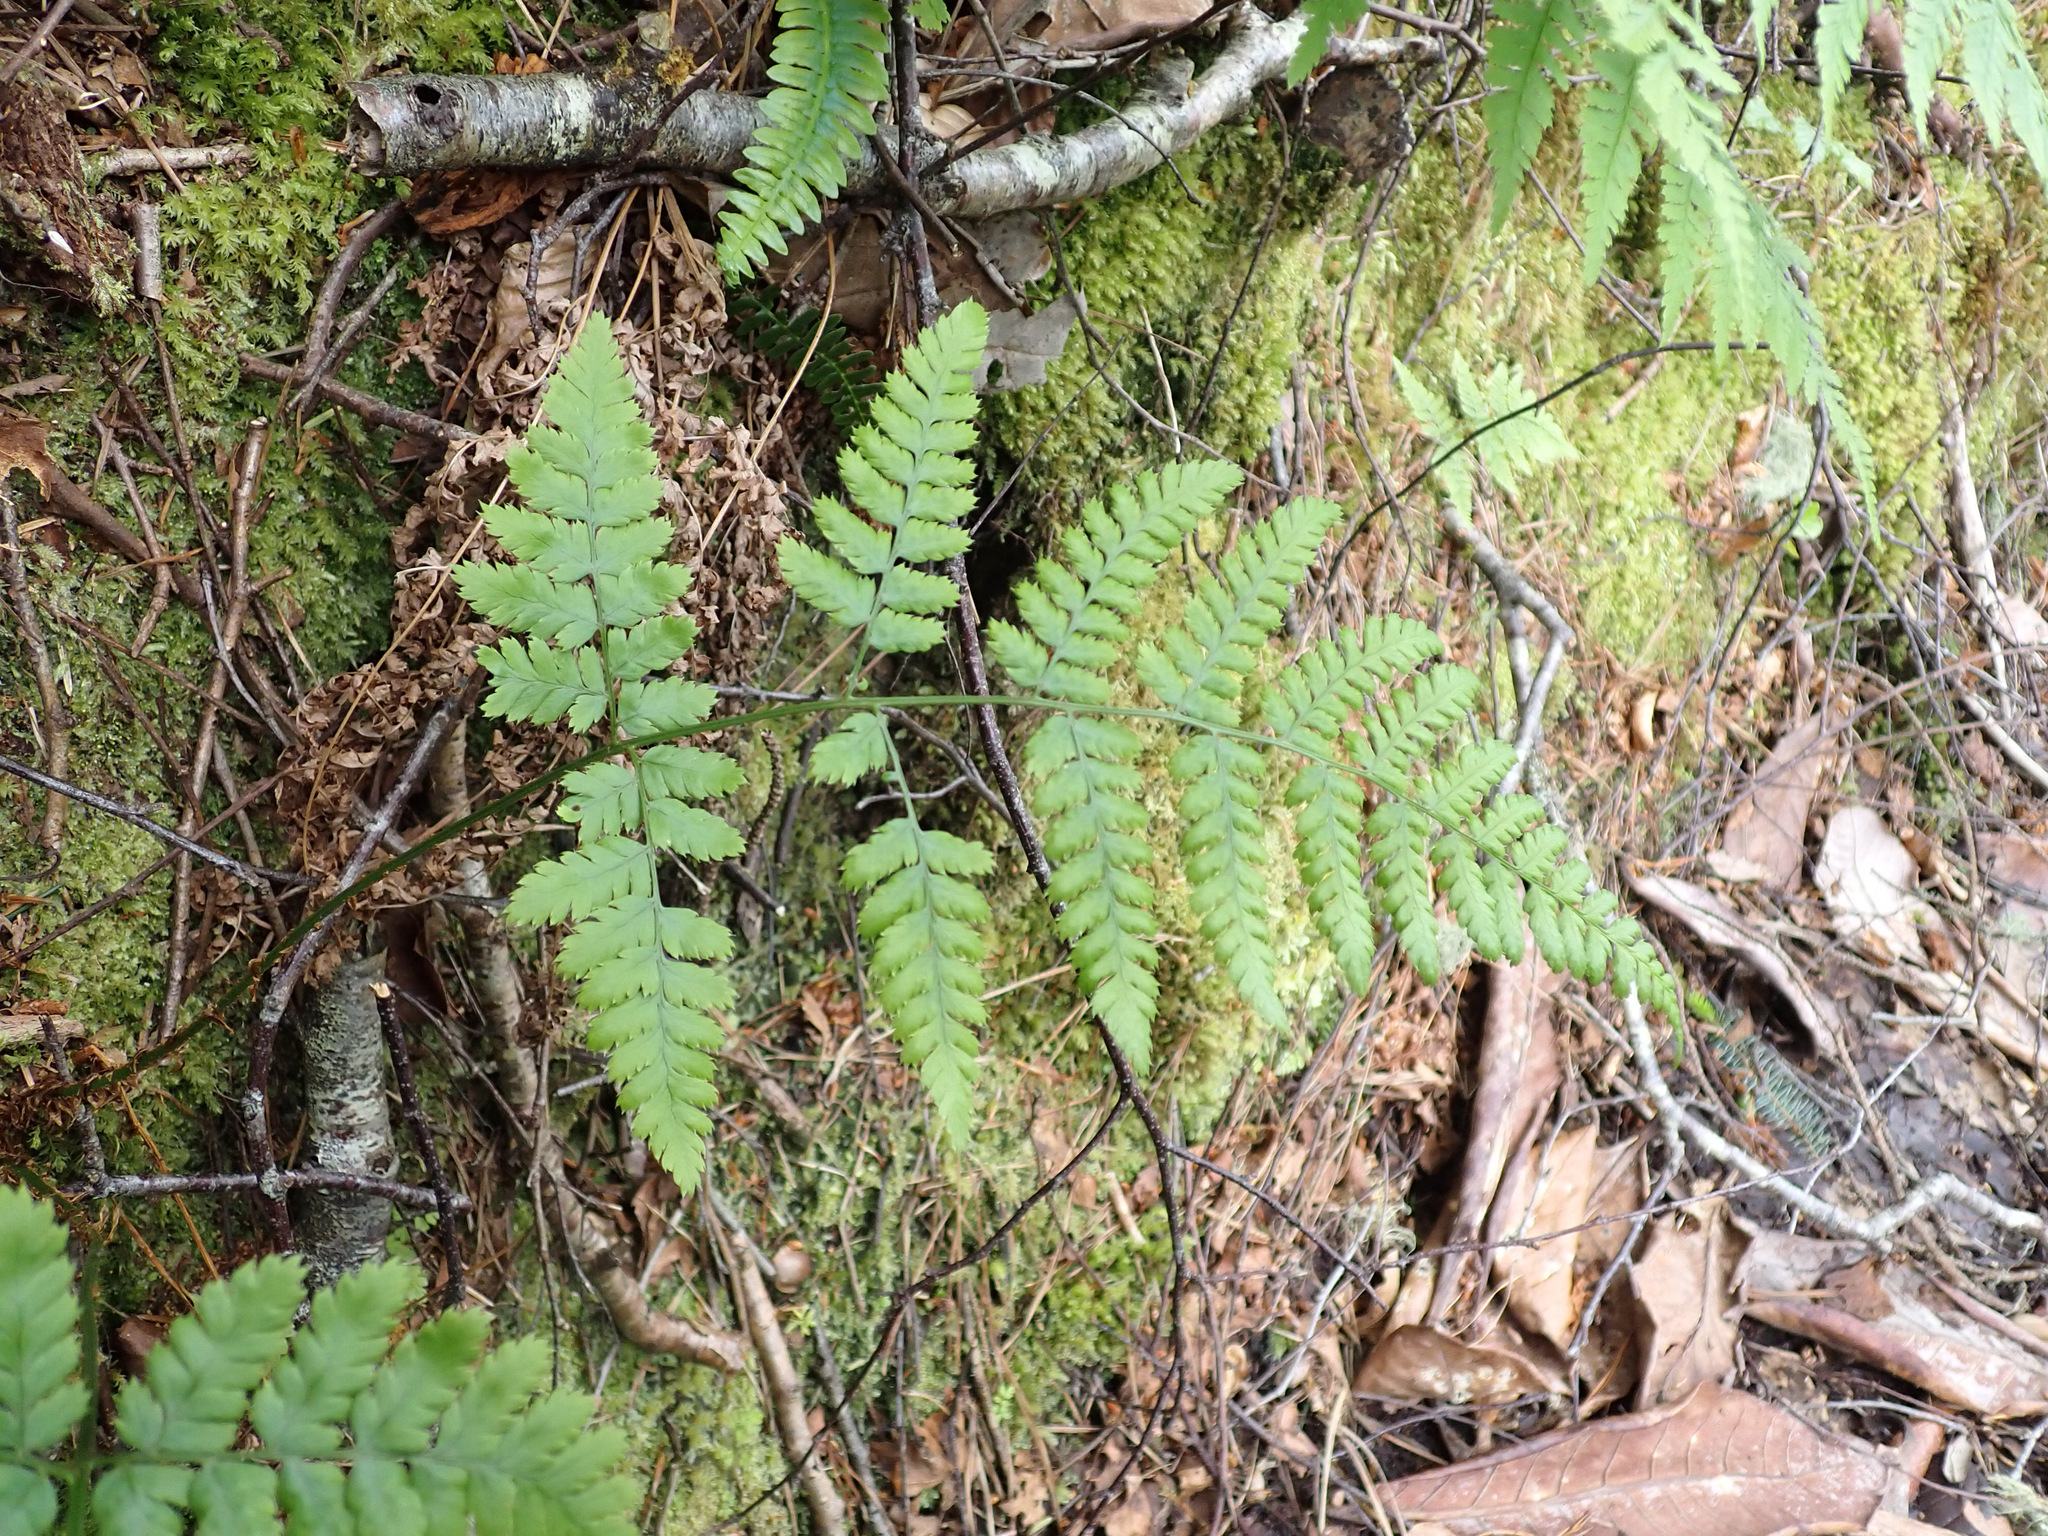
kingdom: Plantae
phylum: Tracheophyta
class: Polypodiopsida
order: Polypodiales
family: Dryopteridaceae
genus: Dryopteris
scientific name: Dryopteris dilatata
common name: Broad buckler-fern
